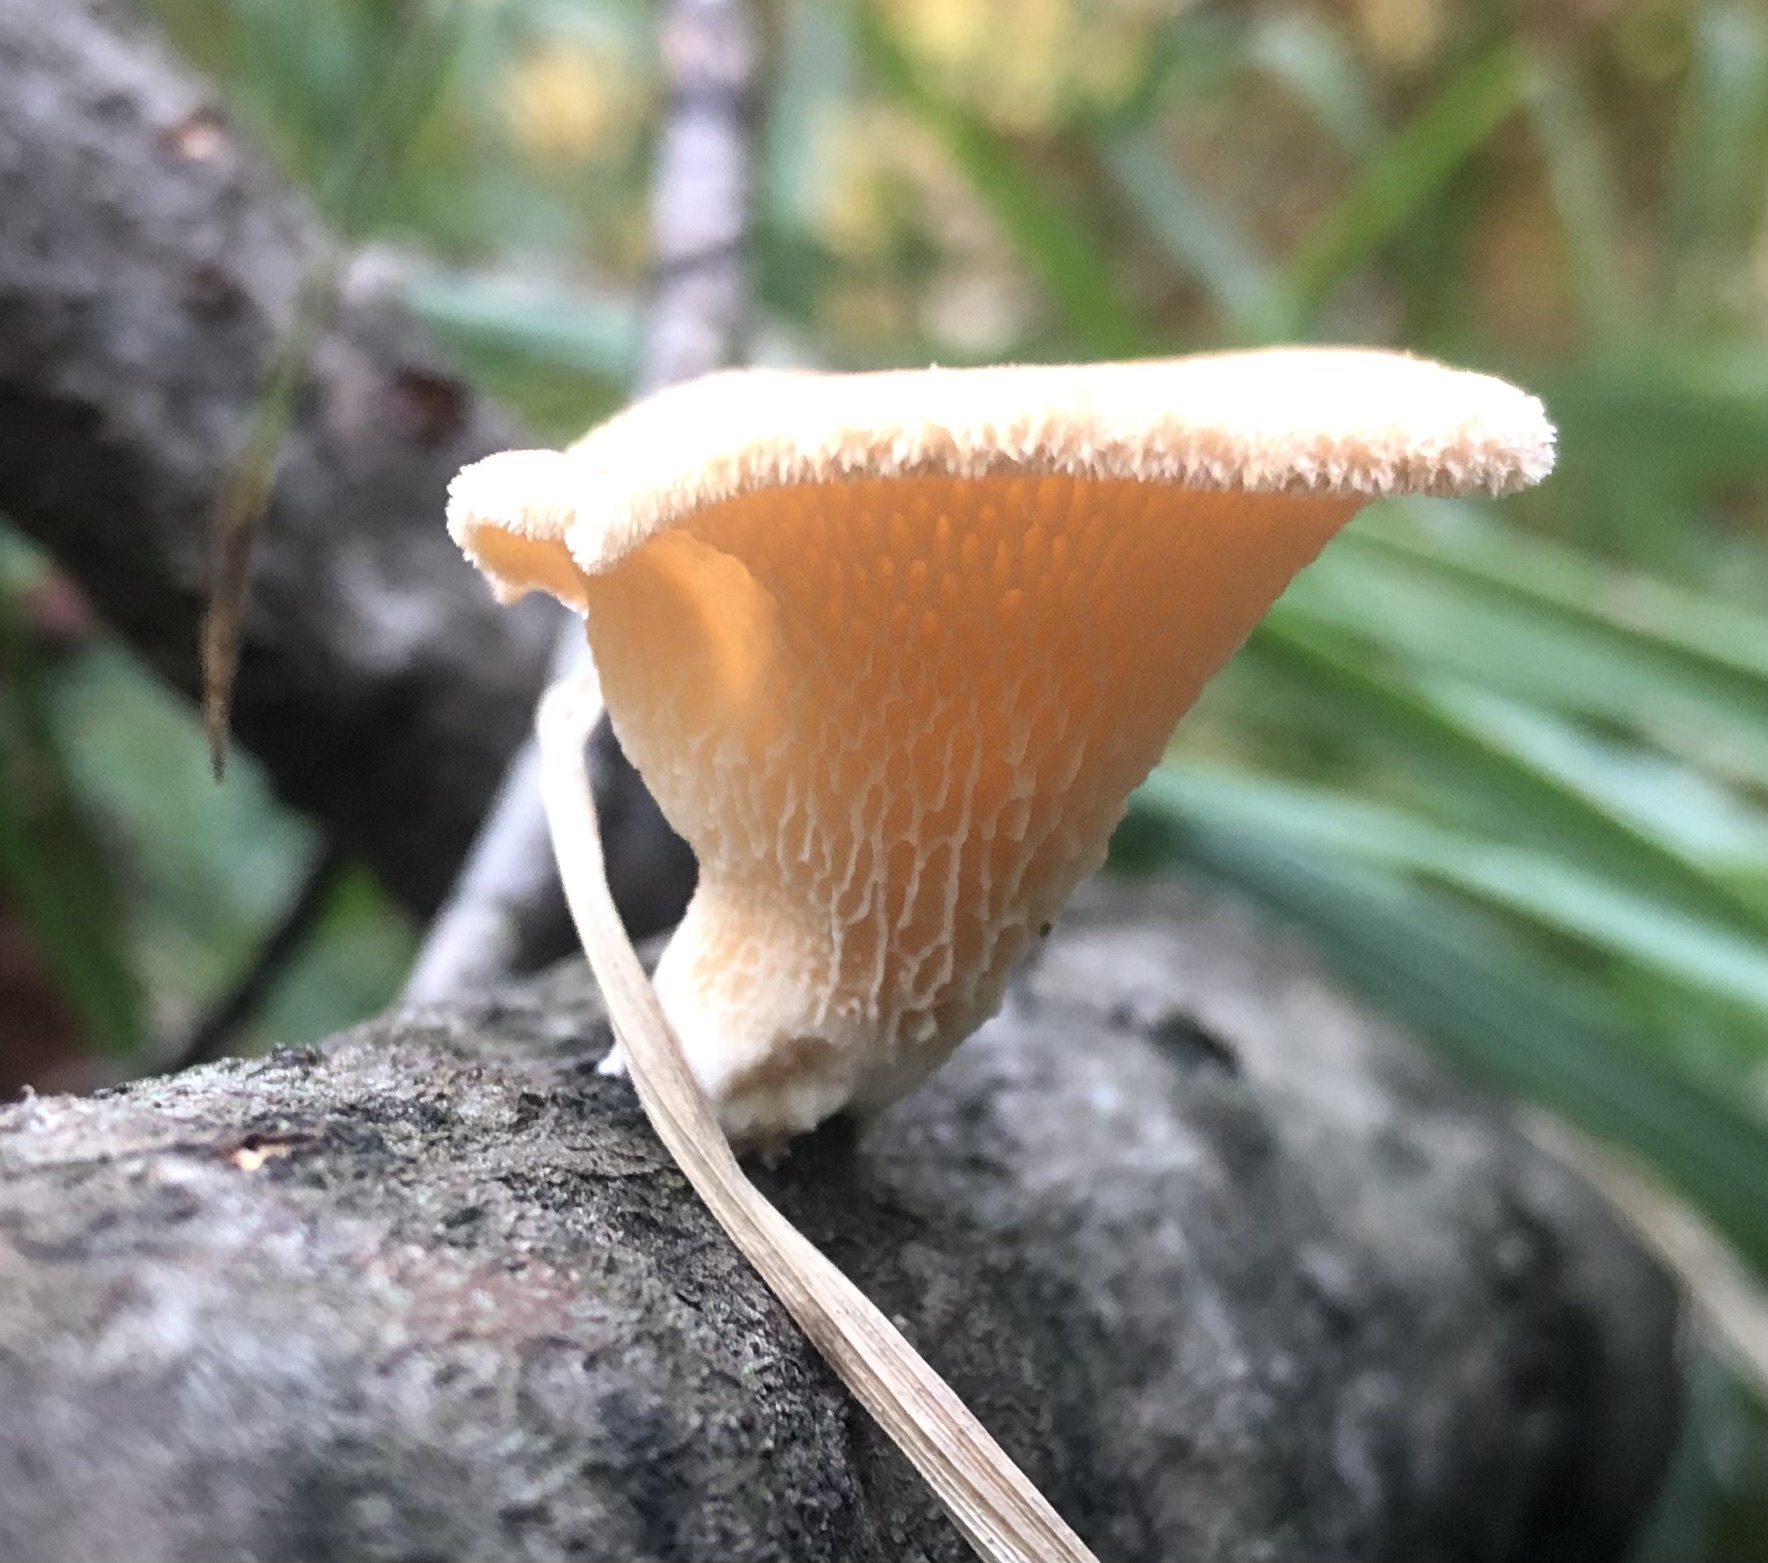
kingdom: Fungi
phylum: Basidiomycota
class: Agaricomycetes
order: Polyporales
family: Polyporaceae
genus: Neofavolus
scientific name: Neofavolus alveolaris
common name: Hexagonal-pored polypore
